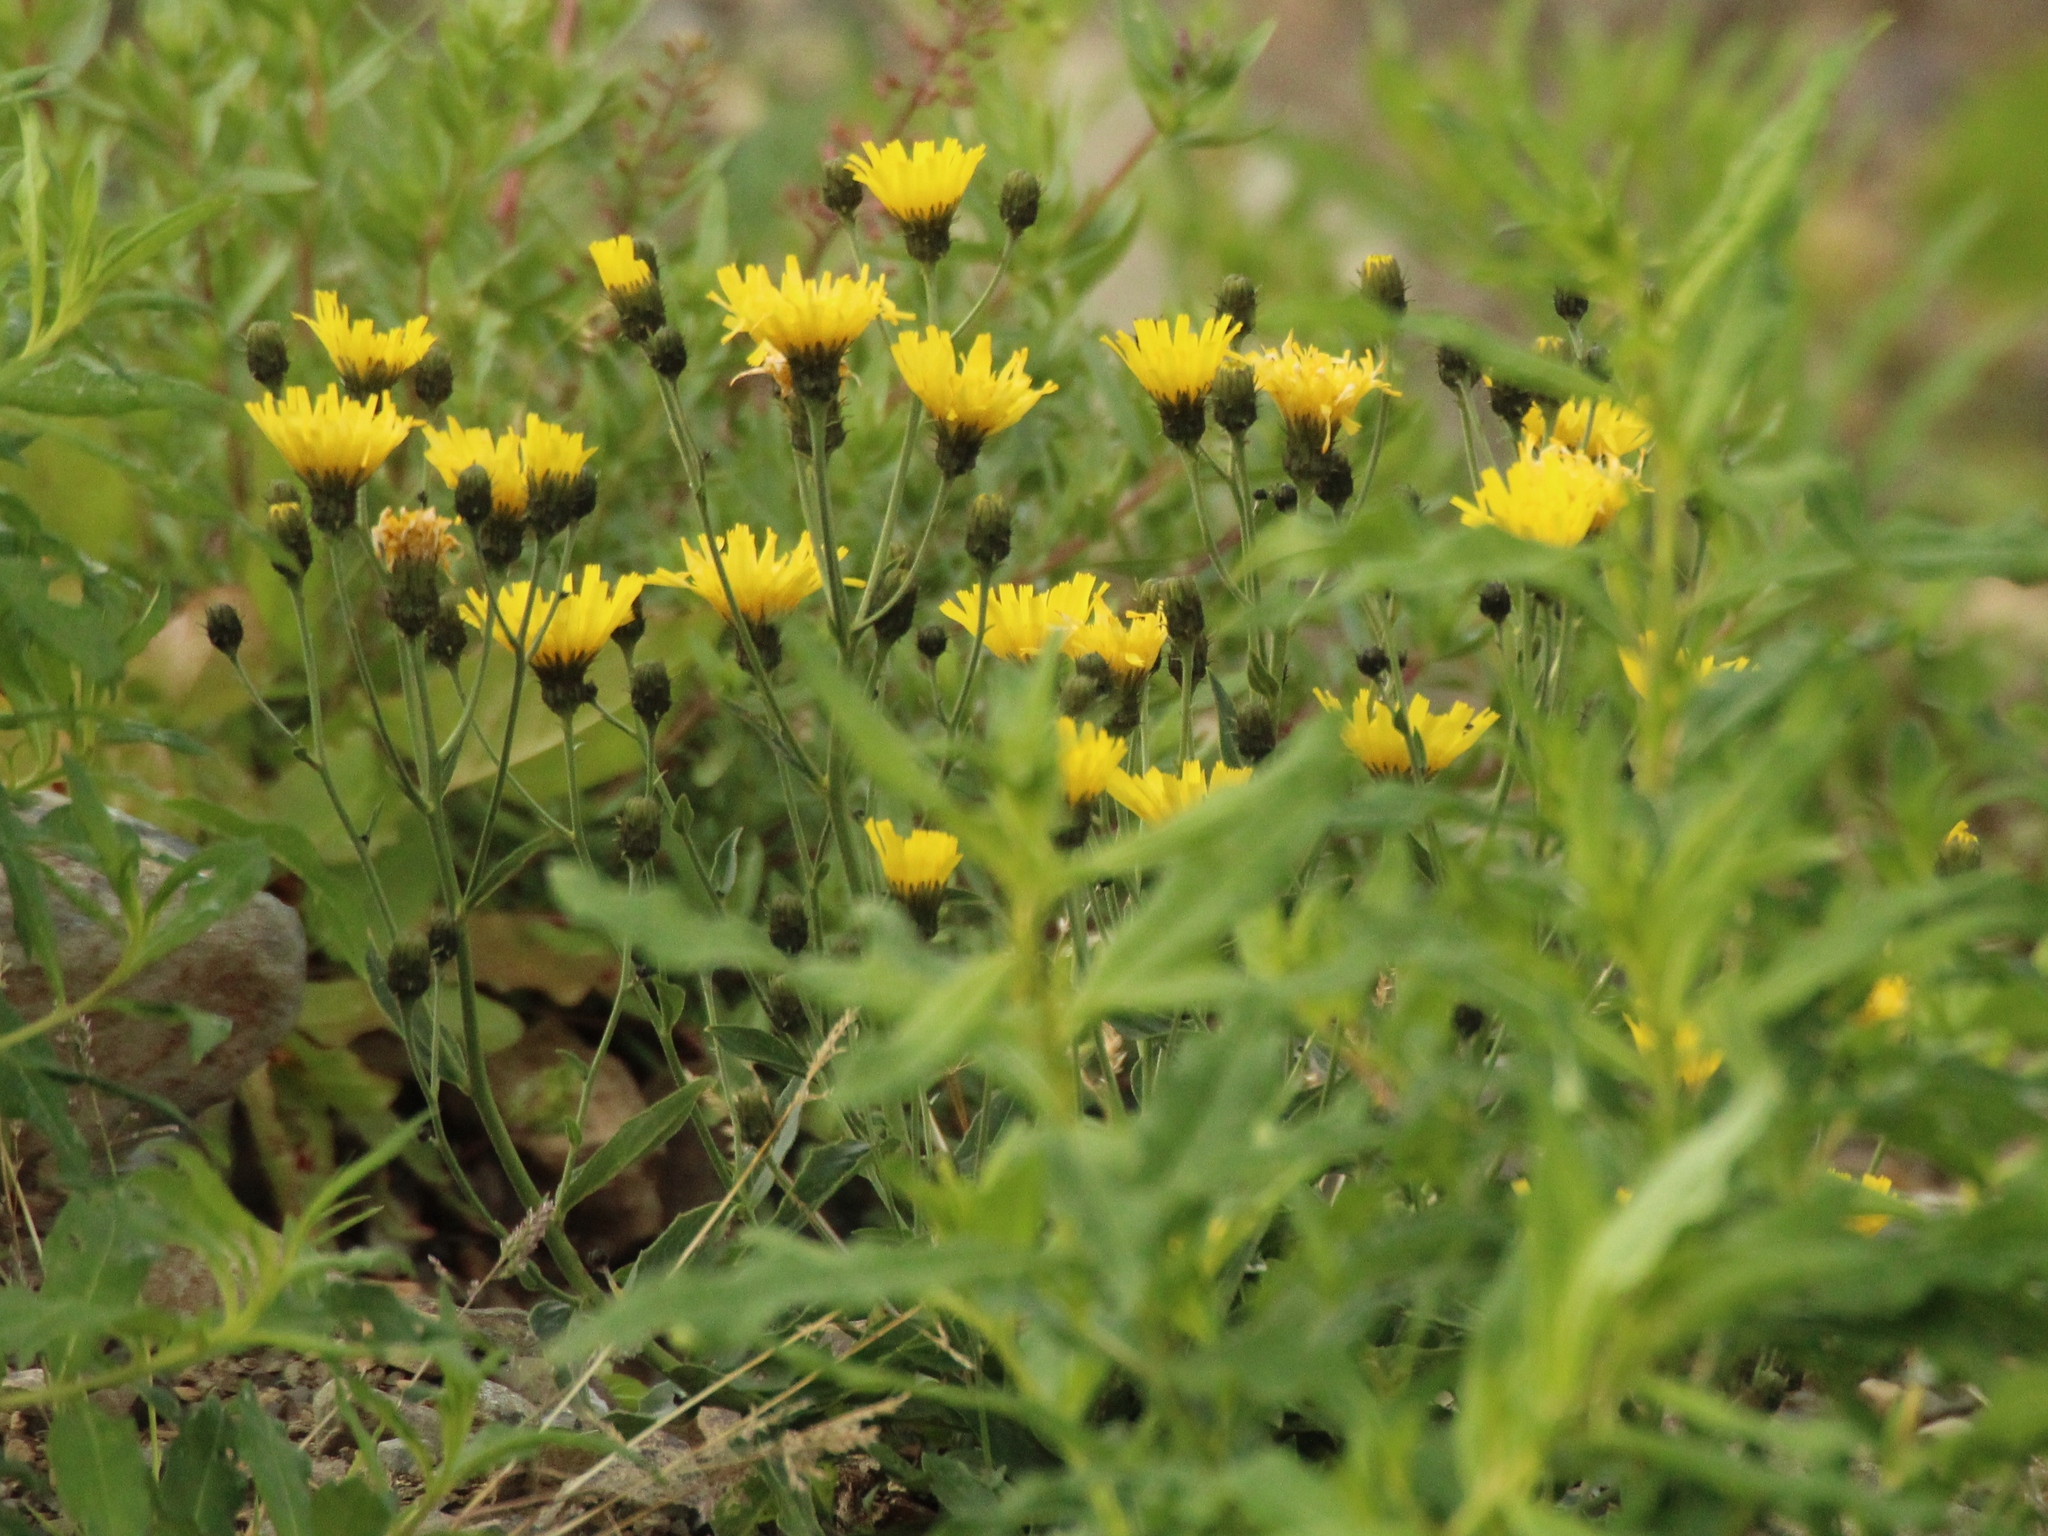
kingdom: Plantae
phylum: Tracheophyta
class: Magnoliopsida
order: Asterales
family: Asteraceae
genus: Hieracium
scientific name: Hieracium umbellatum
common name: Northern hawkweed
